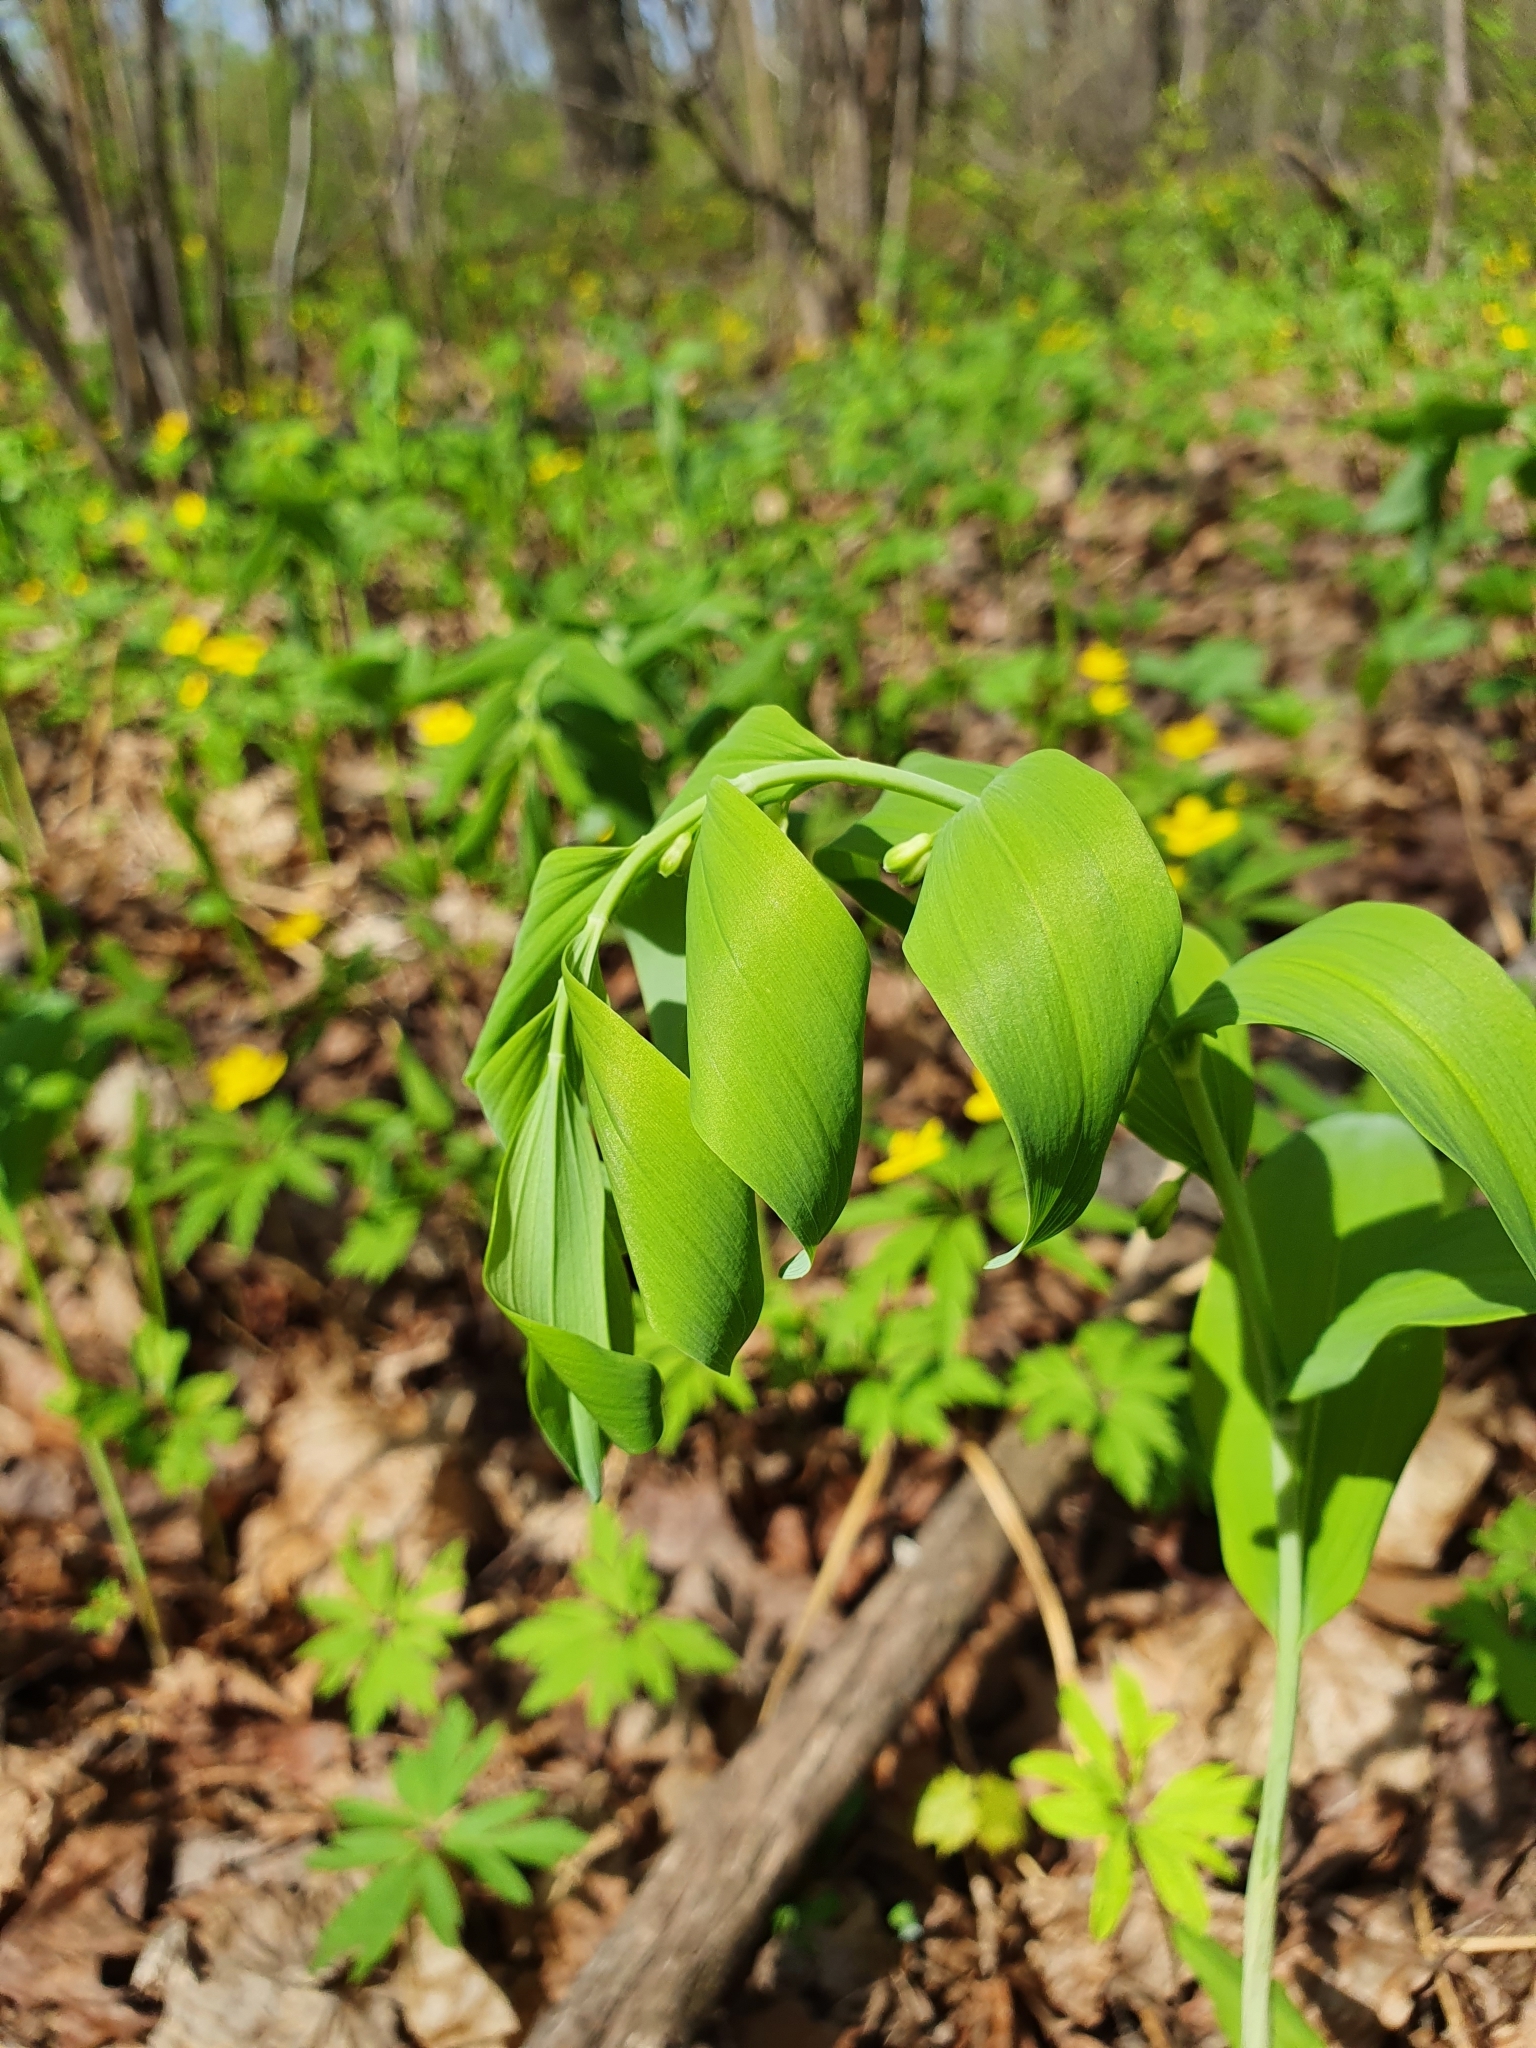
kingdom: Plantae
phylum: Tracheophyta
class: Liliopsida
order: Asparagales
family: Asparagaceae
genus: Polygonatum
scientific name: Polygonatum odoratum
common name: Angular solomon's-seal
